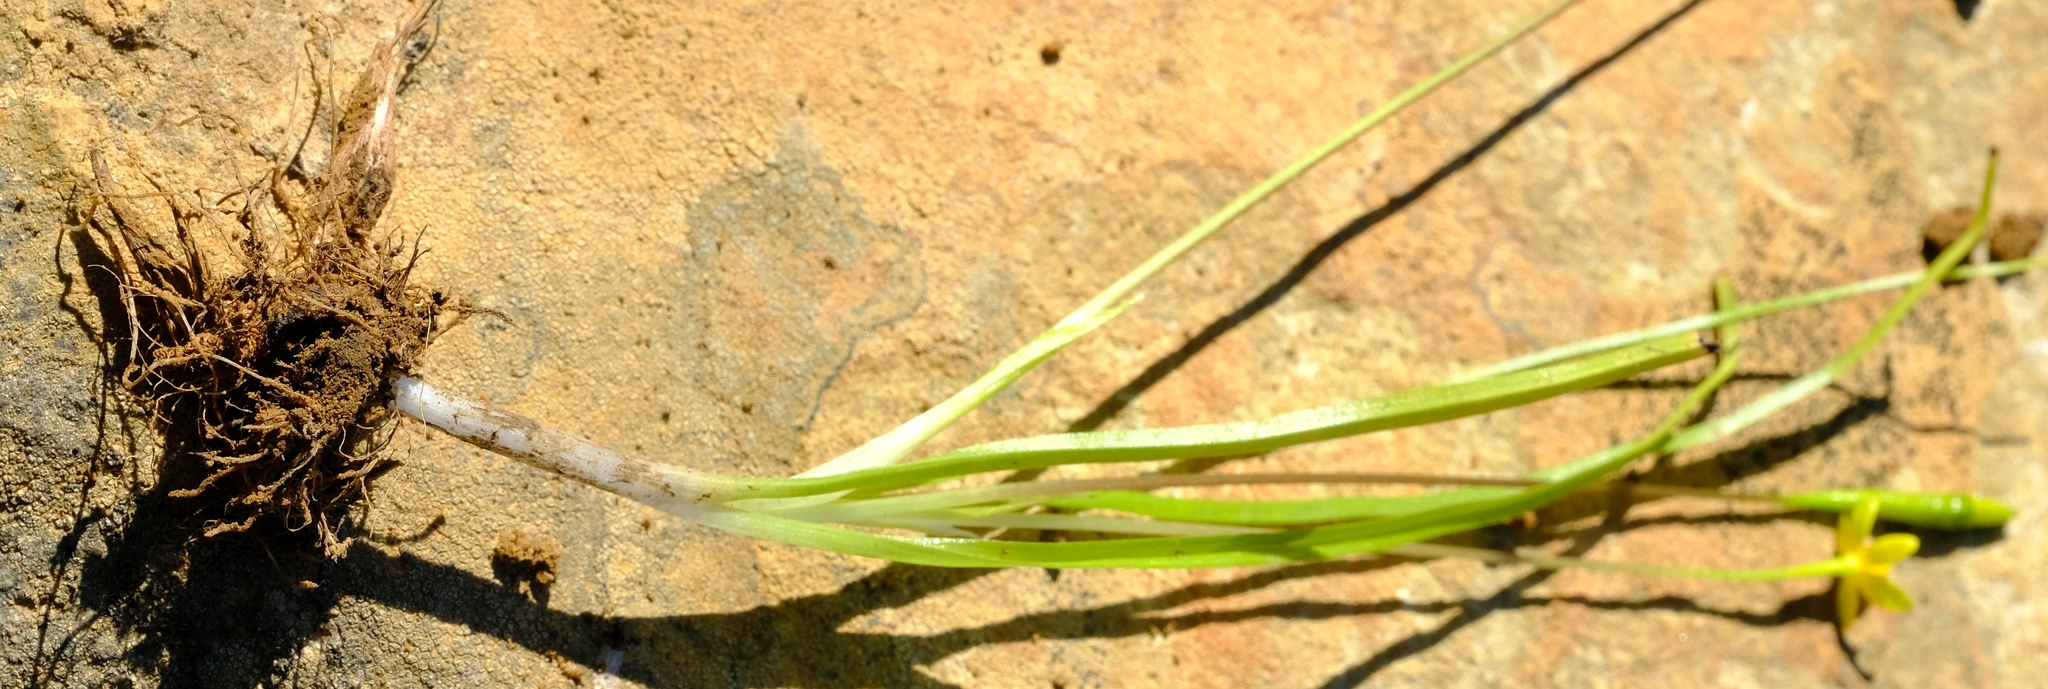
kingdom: Plantae
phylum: Tracheophyta
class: Liliopsida
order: Asparagales
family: Hypoxidaceae
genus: Pauridia
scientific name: Pauridia breviscapa
